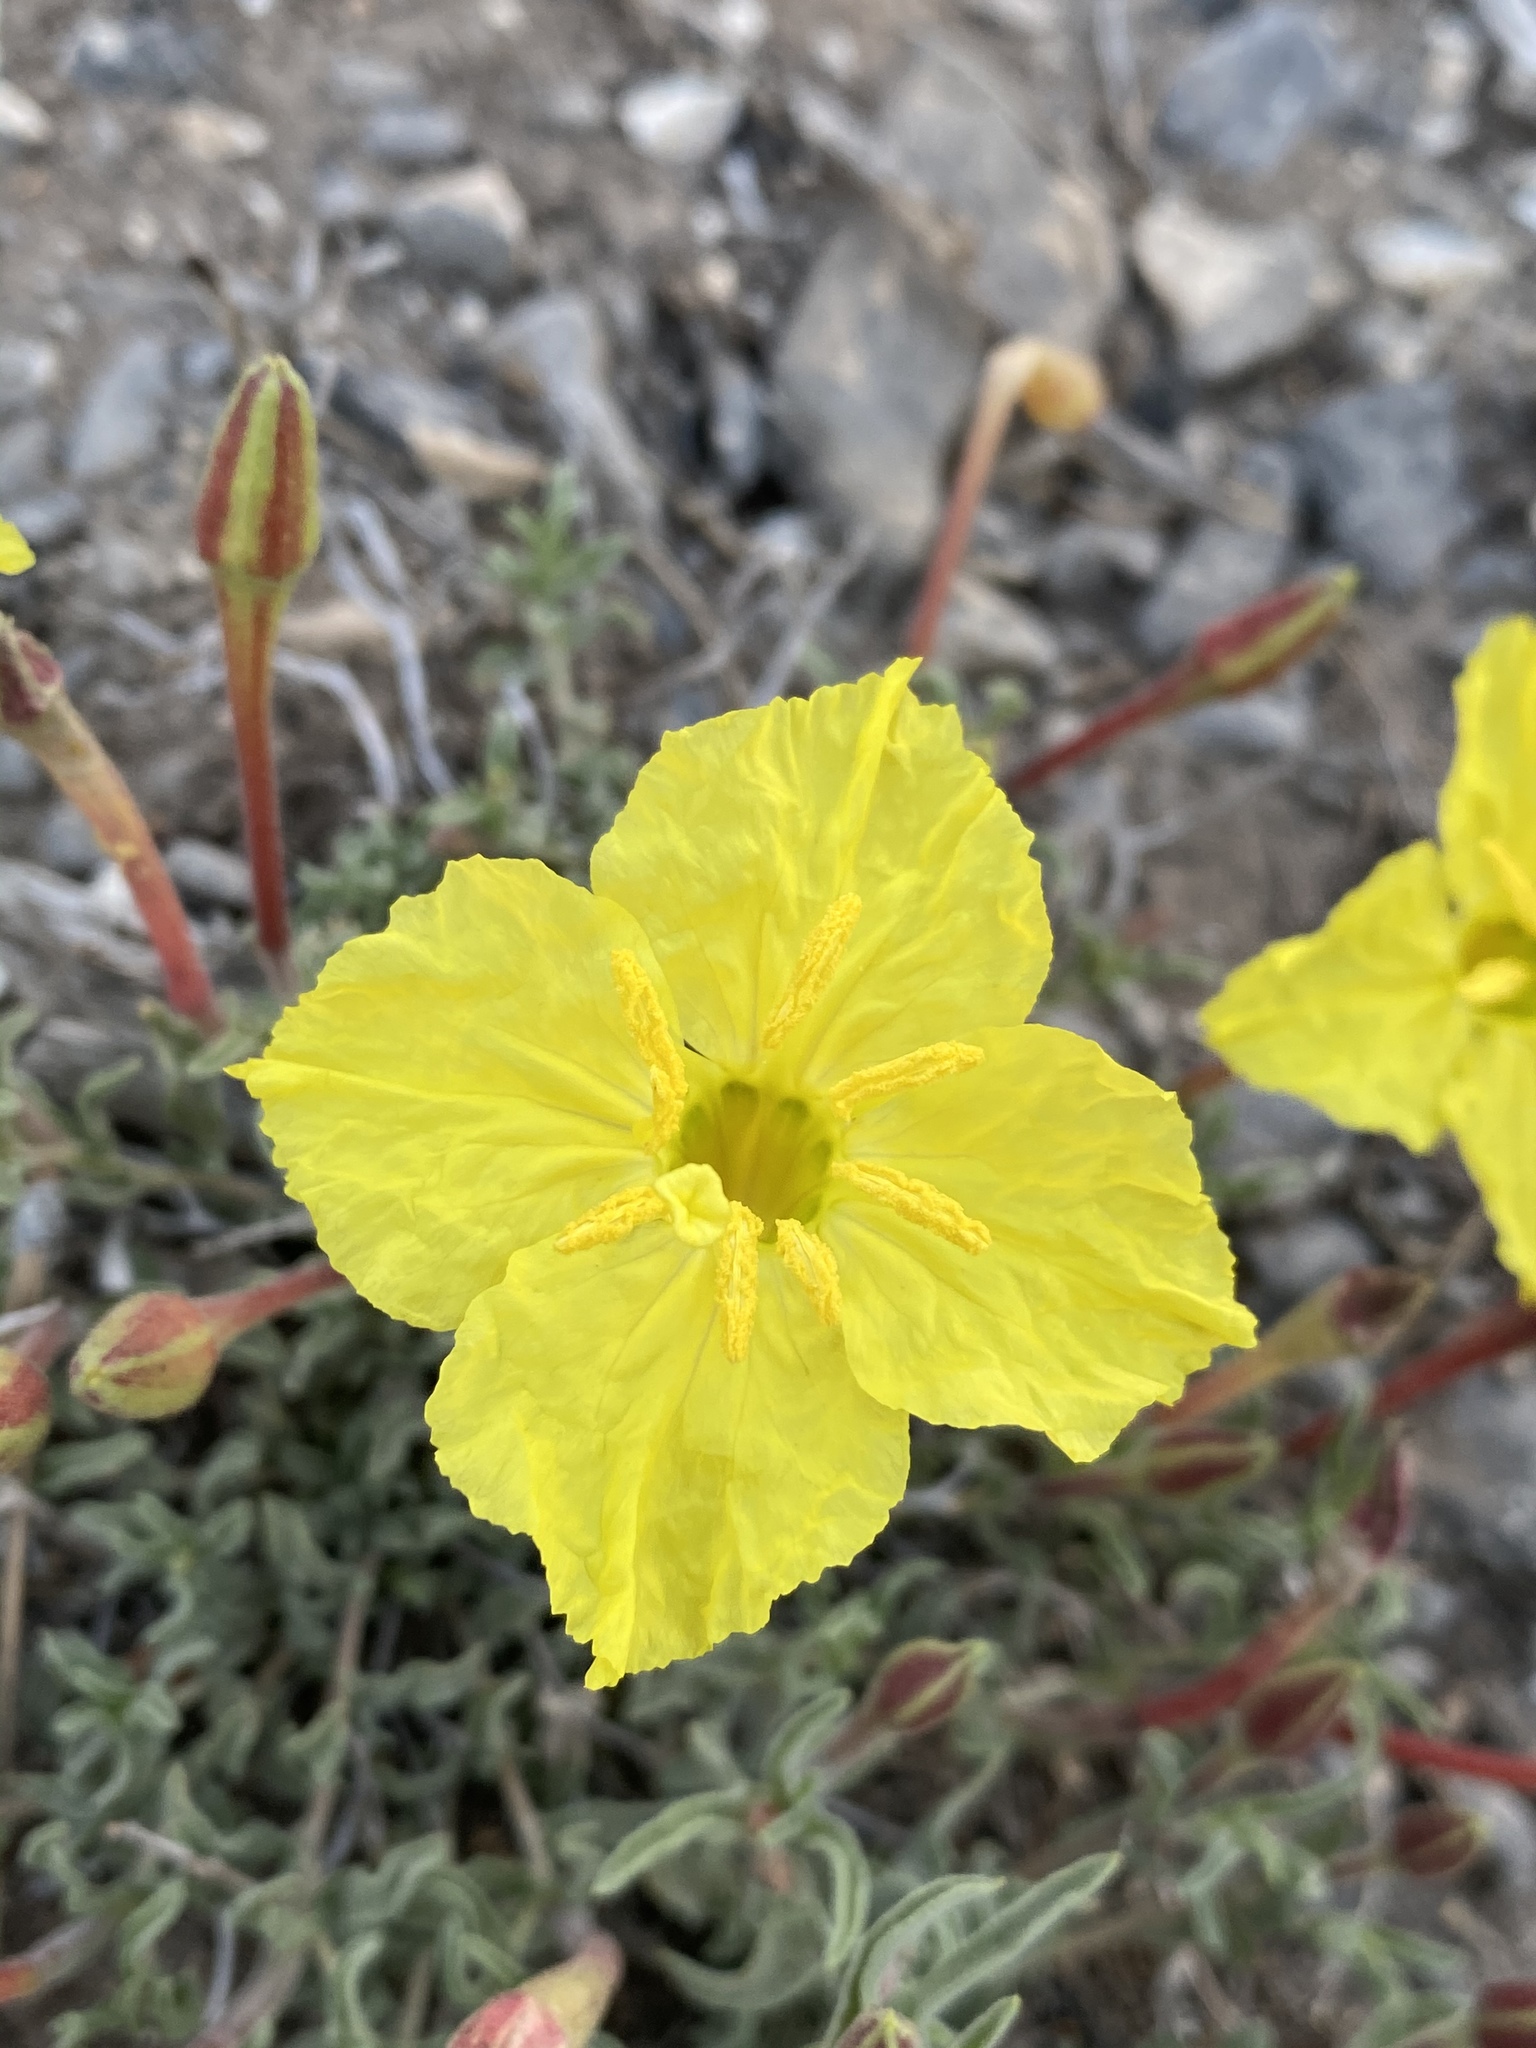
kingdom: Plantae
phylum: Tracheophyta
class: Magnoliopsida
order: Myrtales
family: Onagraceae
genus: Oenothera
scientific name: Oenothera lavandulifolia
